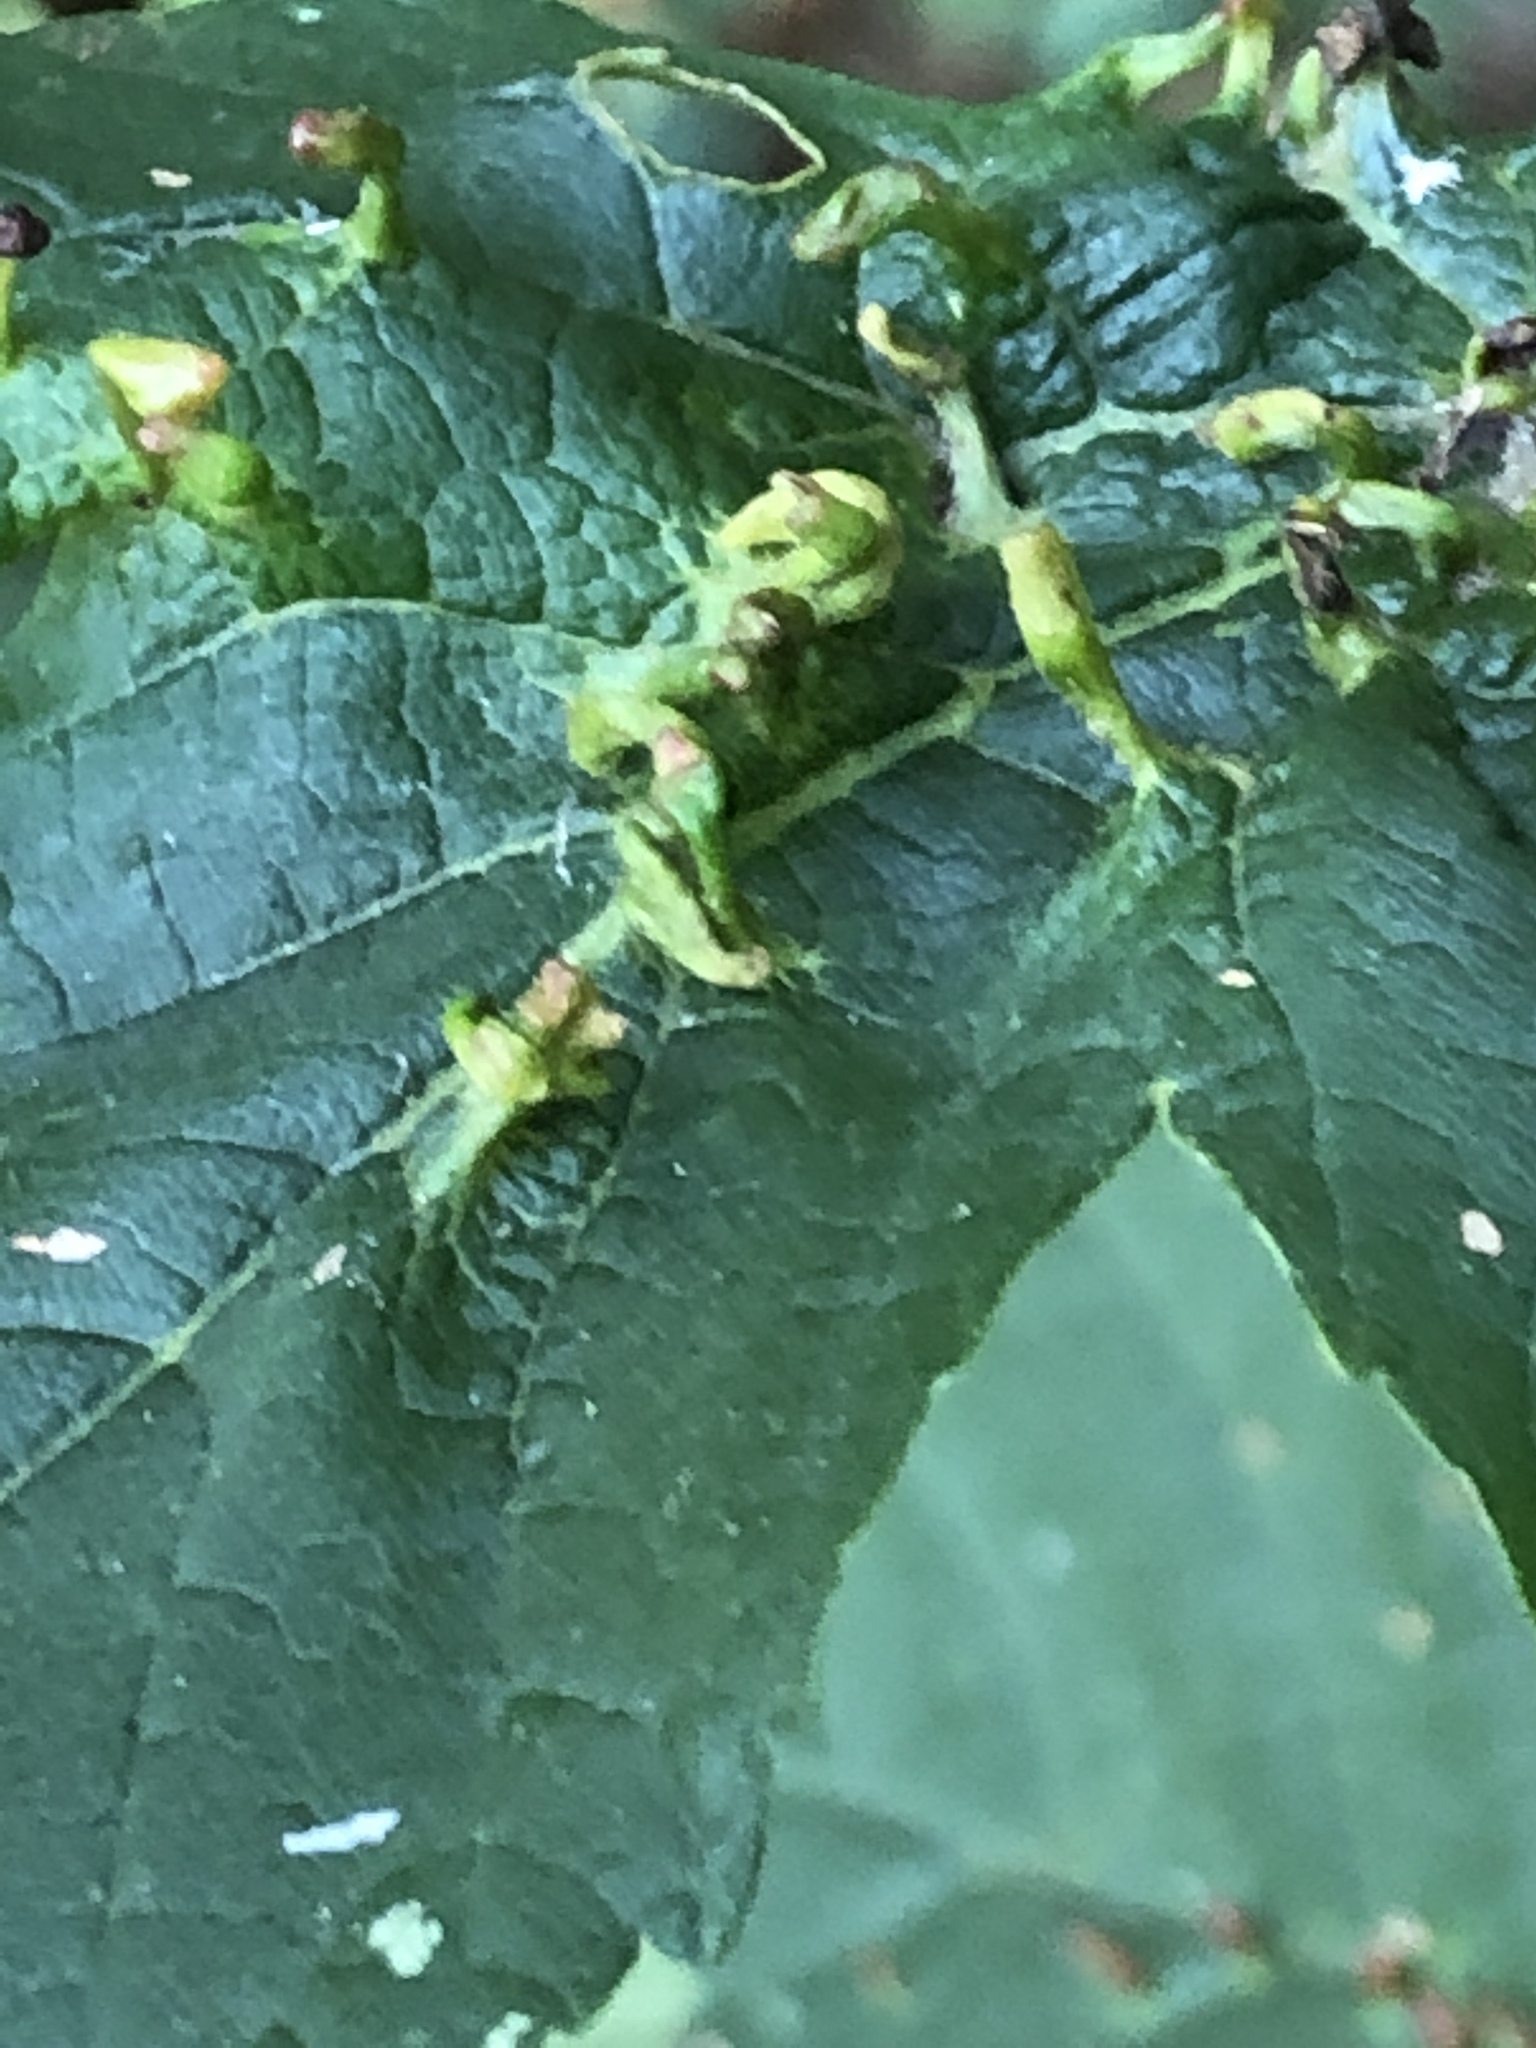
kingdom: Animalia
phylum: Arthropoda
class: Arachnida
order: Trombidiformes
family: Eriophyidae
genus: Aceria
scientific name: Aceria cephaloneus
